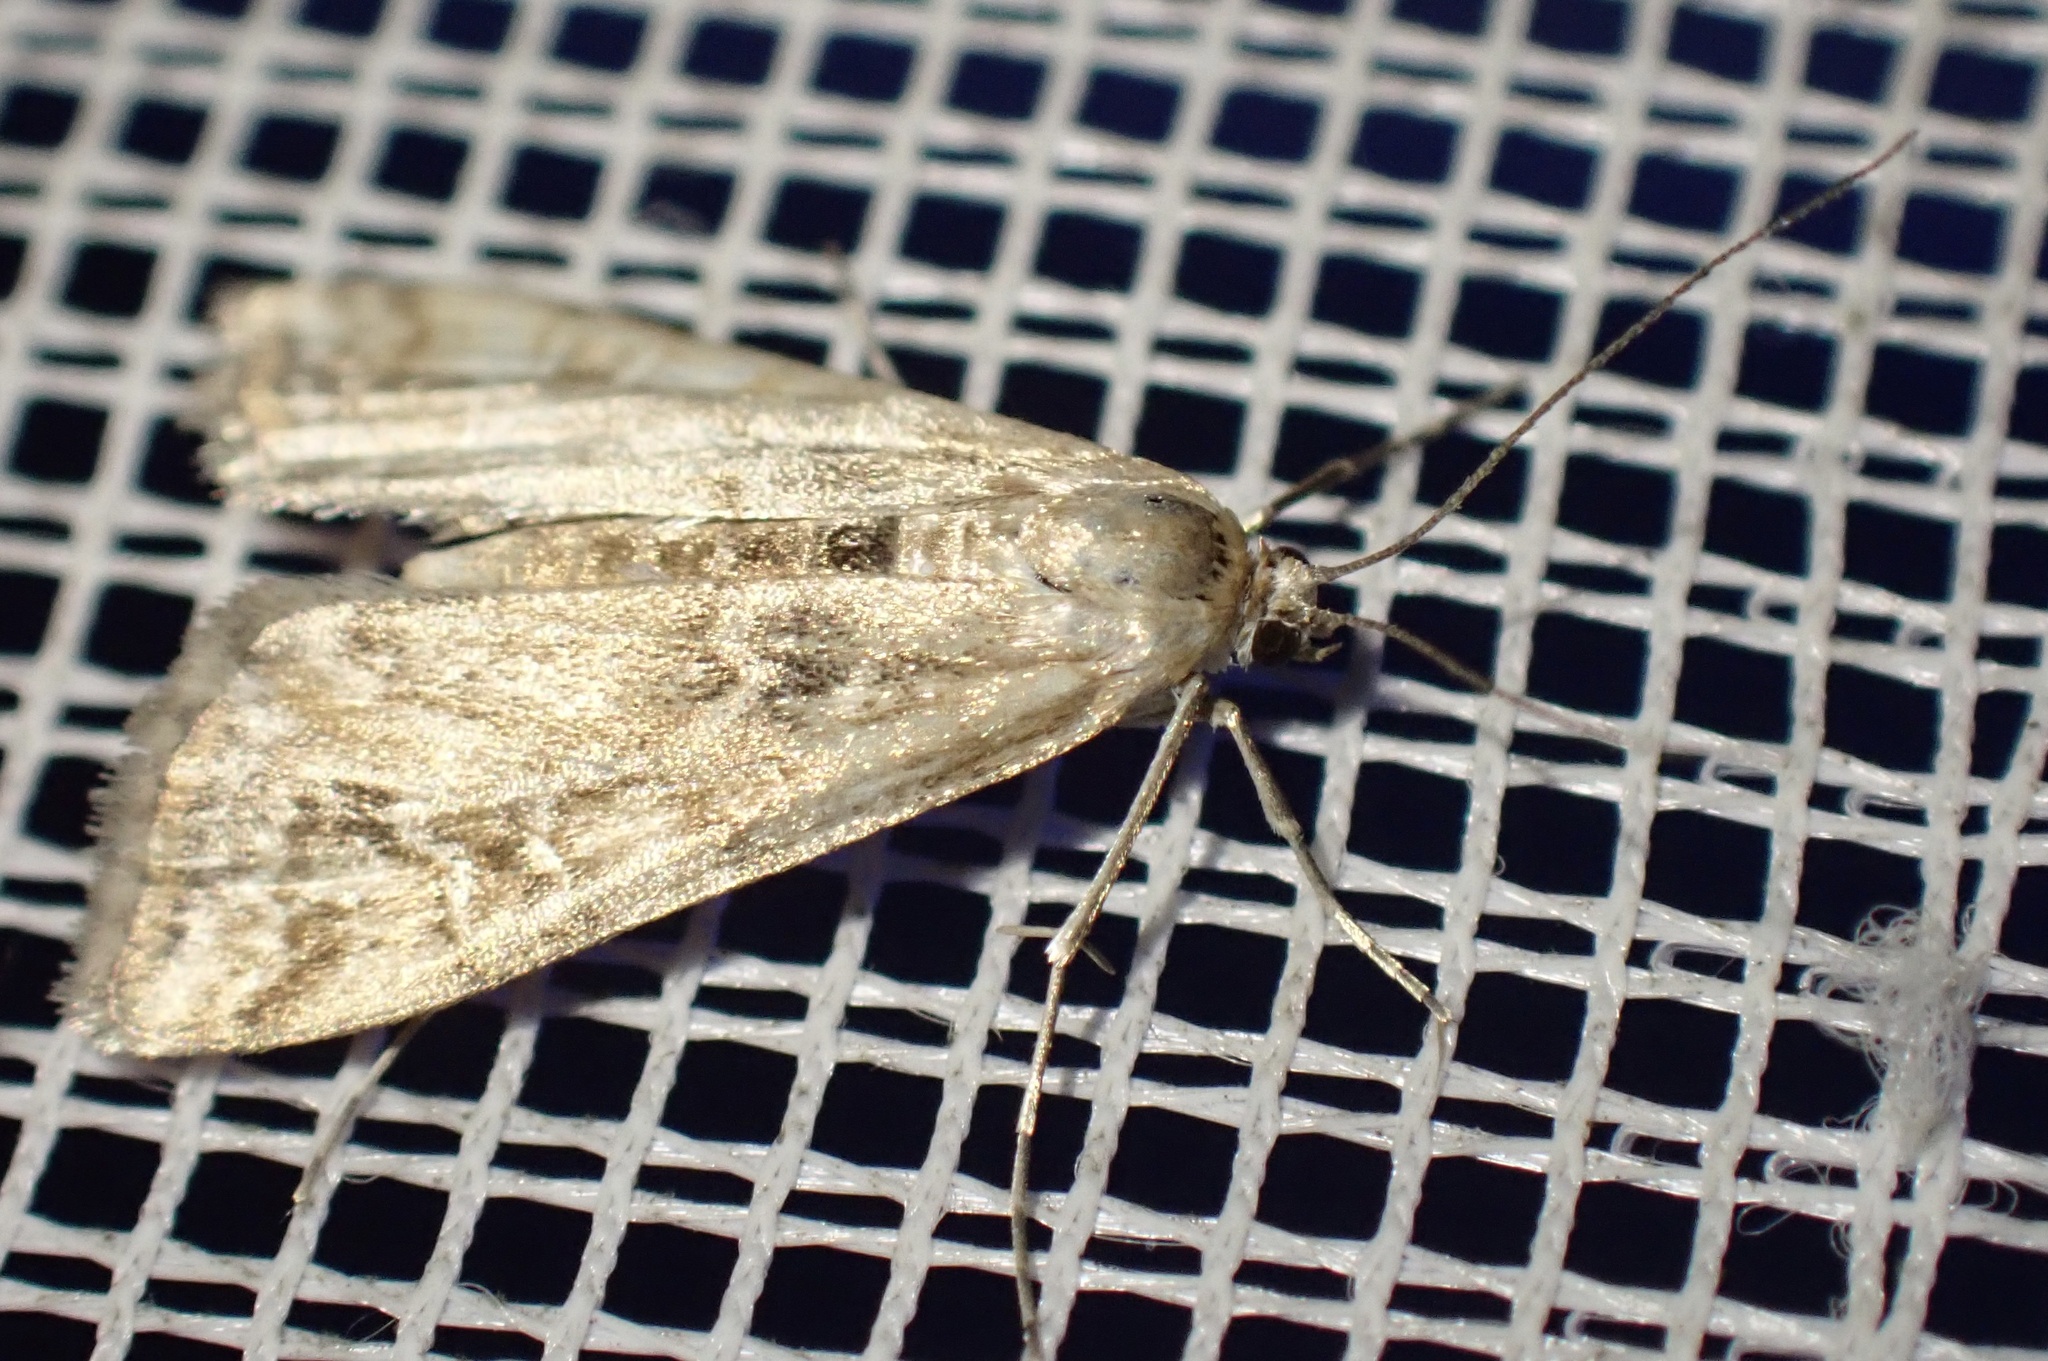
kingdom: Animalia
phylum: Arthropoda
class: Insecta
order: Lepidoptera
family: Crambidae
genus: Cataclysta
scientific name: Cataclysta lemnata
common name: Small china-mark
